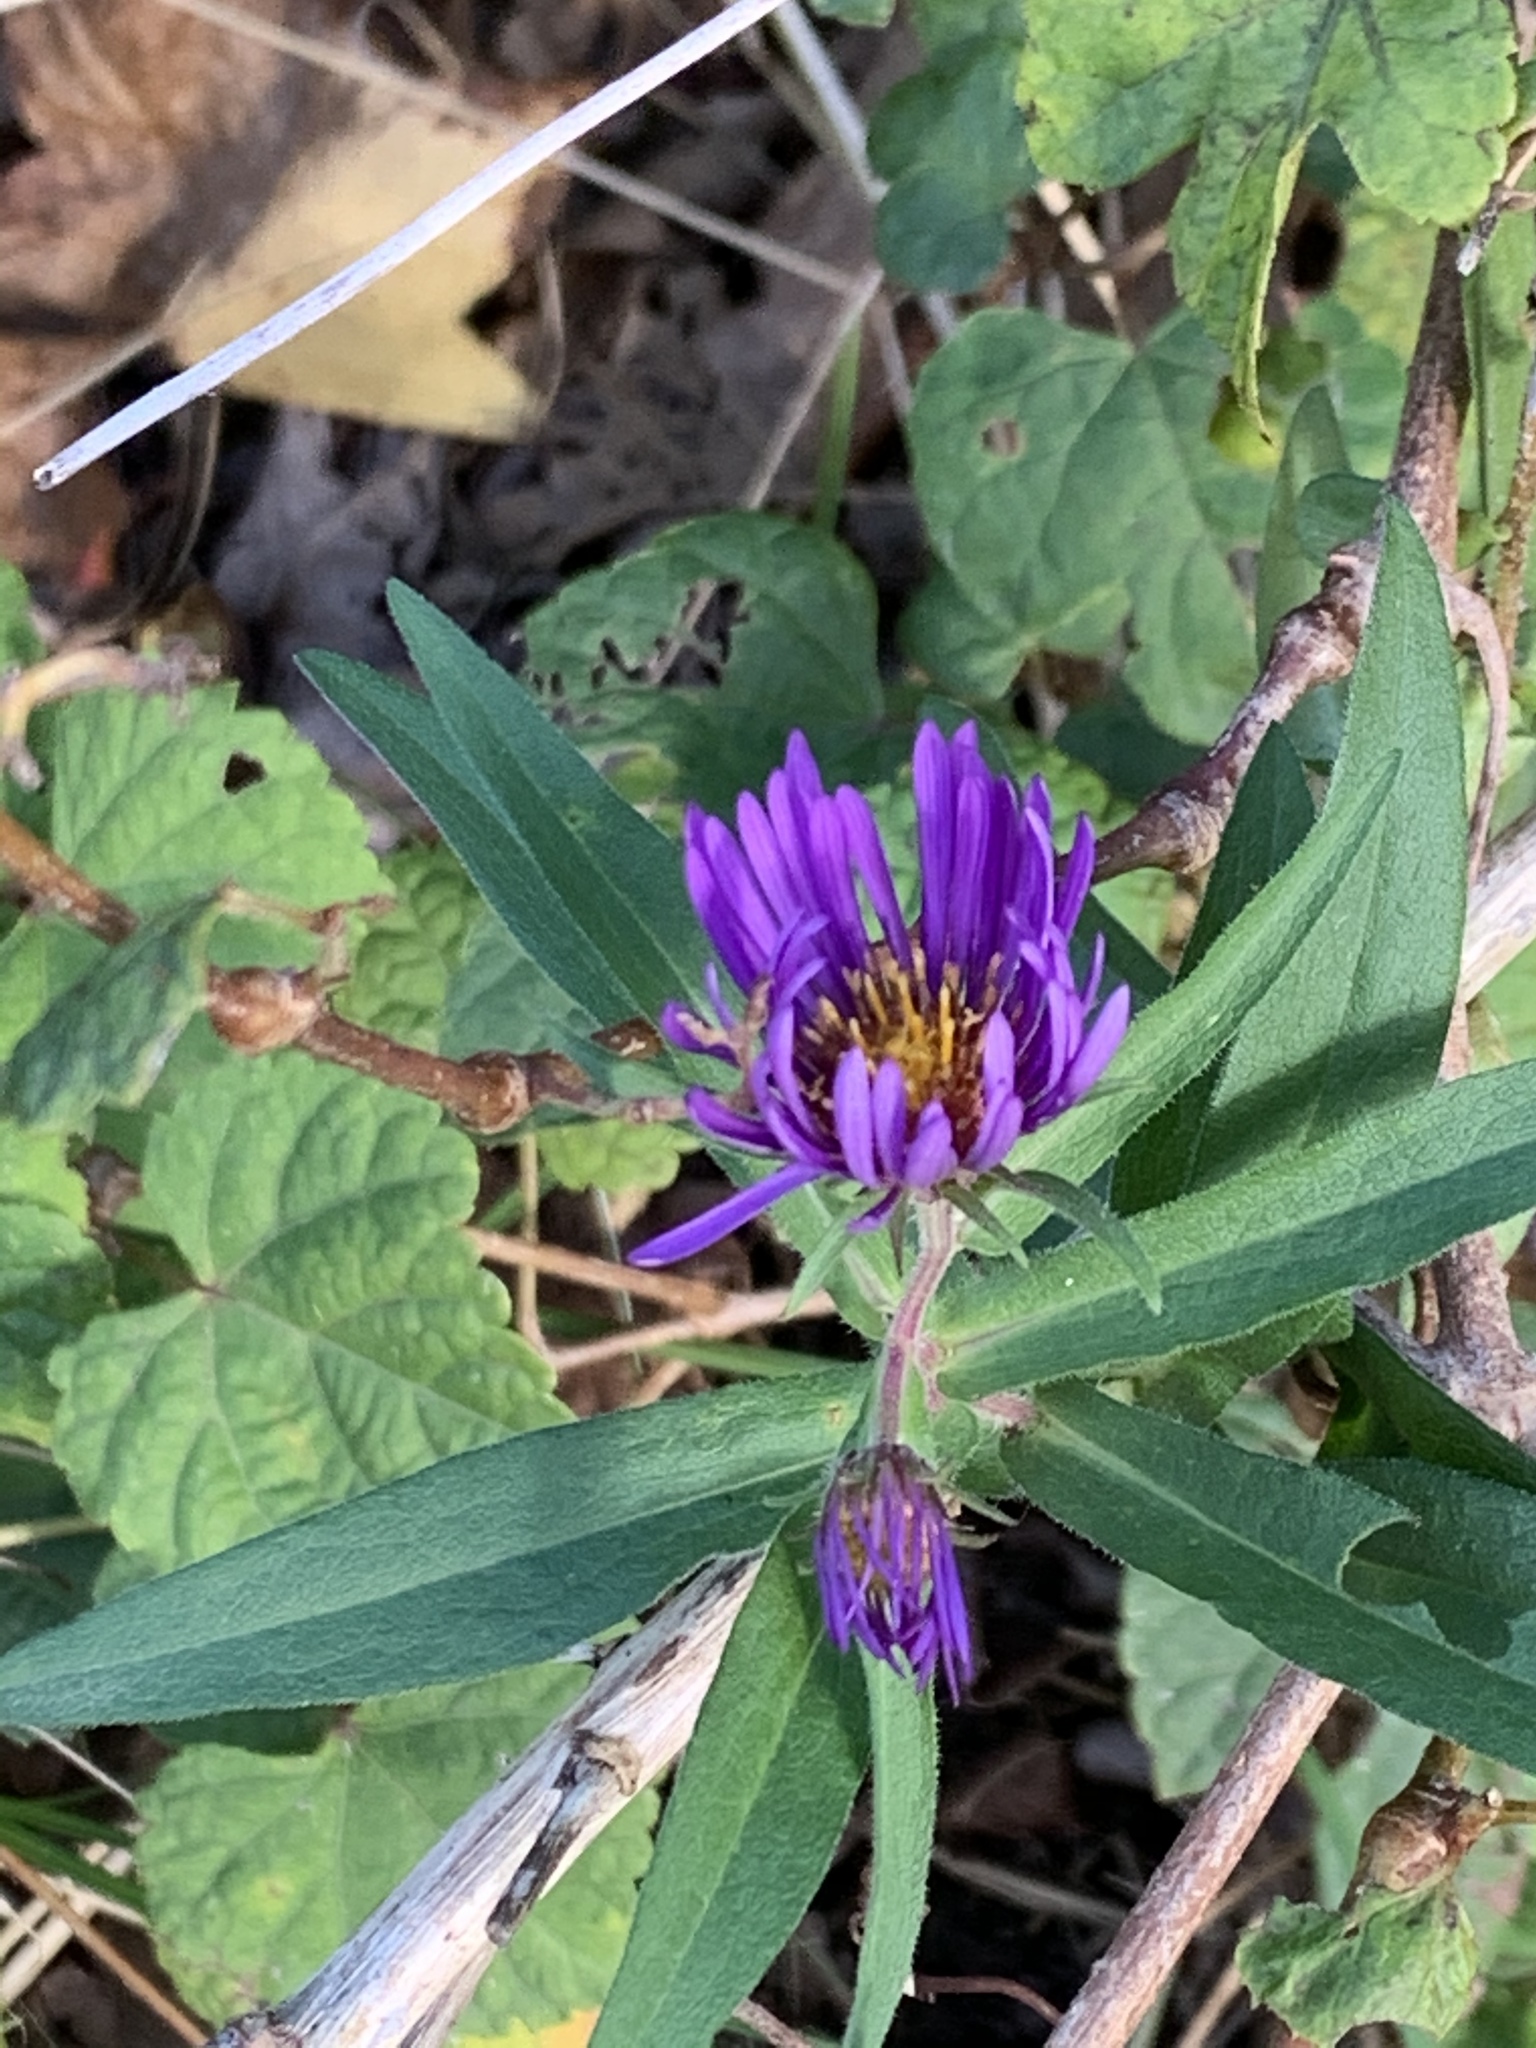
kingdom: Plantae
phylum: Tracheophyta
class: Magnoliopsida
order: Asterales
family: Asteraceae
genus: Symphyotrichum
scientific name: Symphyotrichum novae-angliae
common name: Michaelmas daisy
